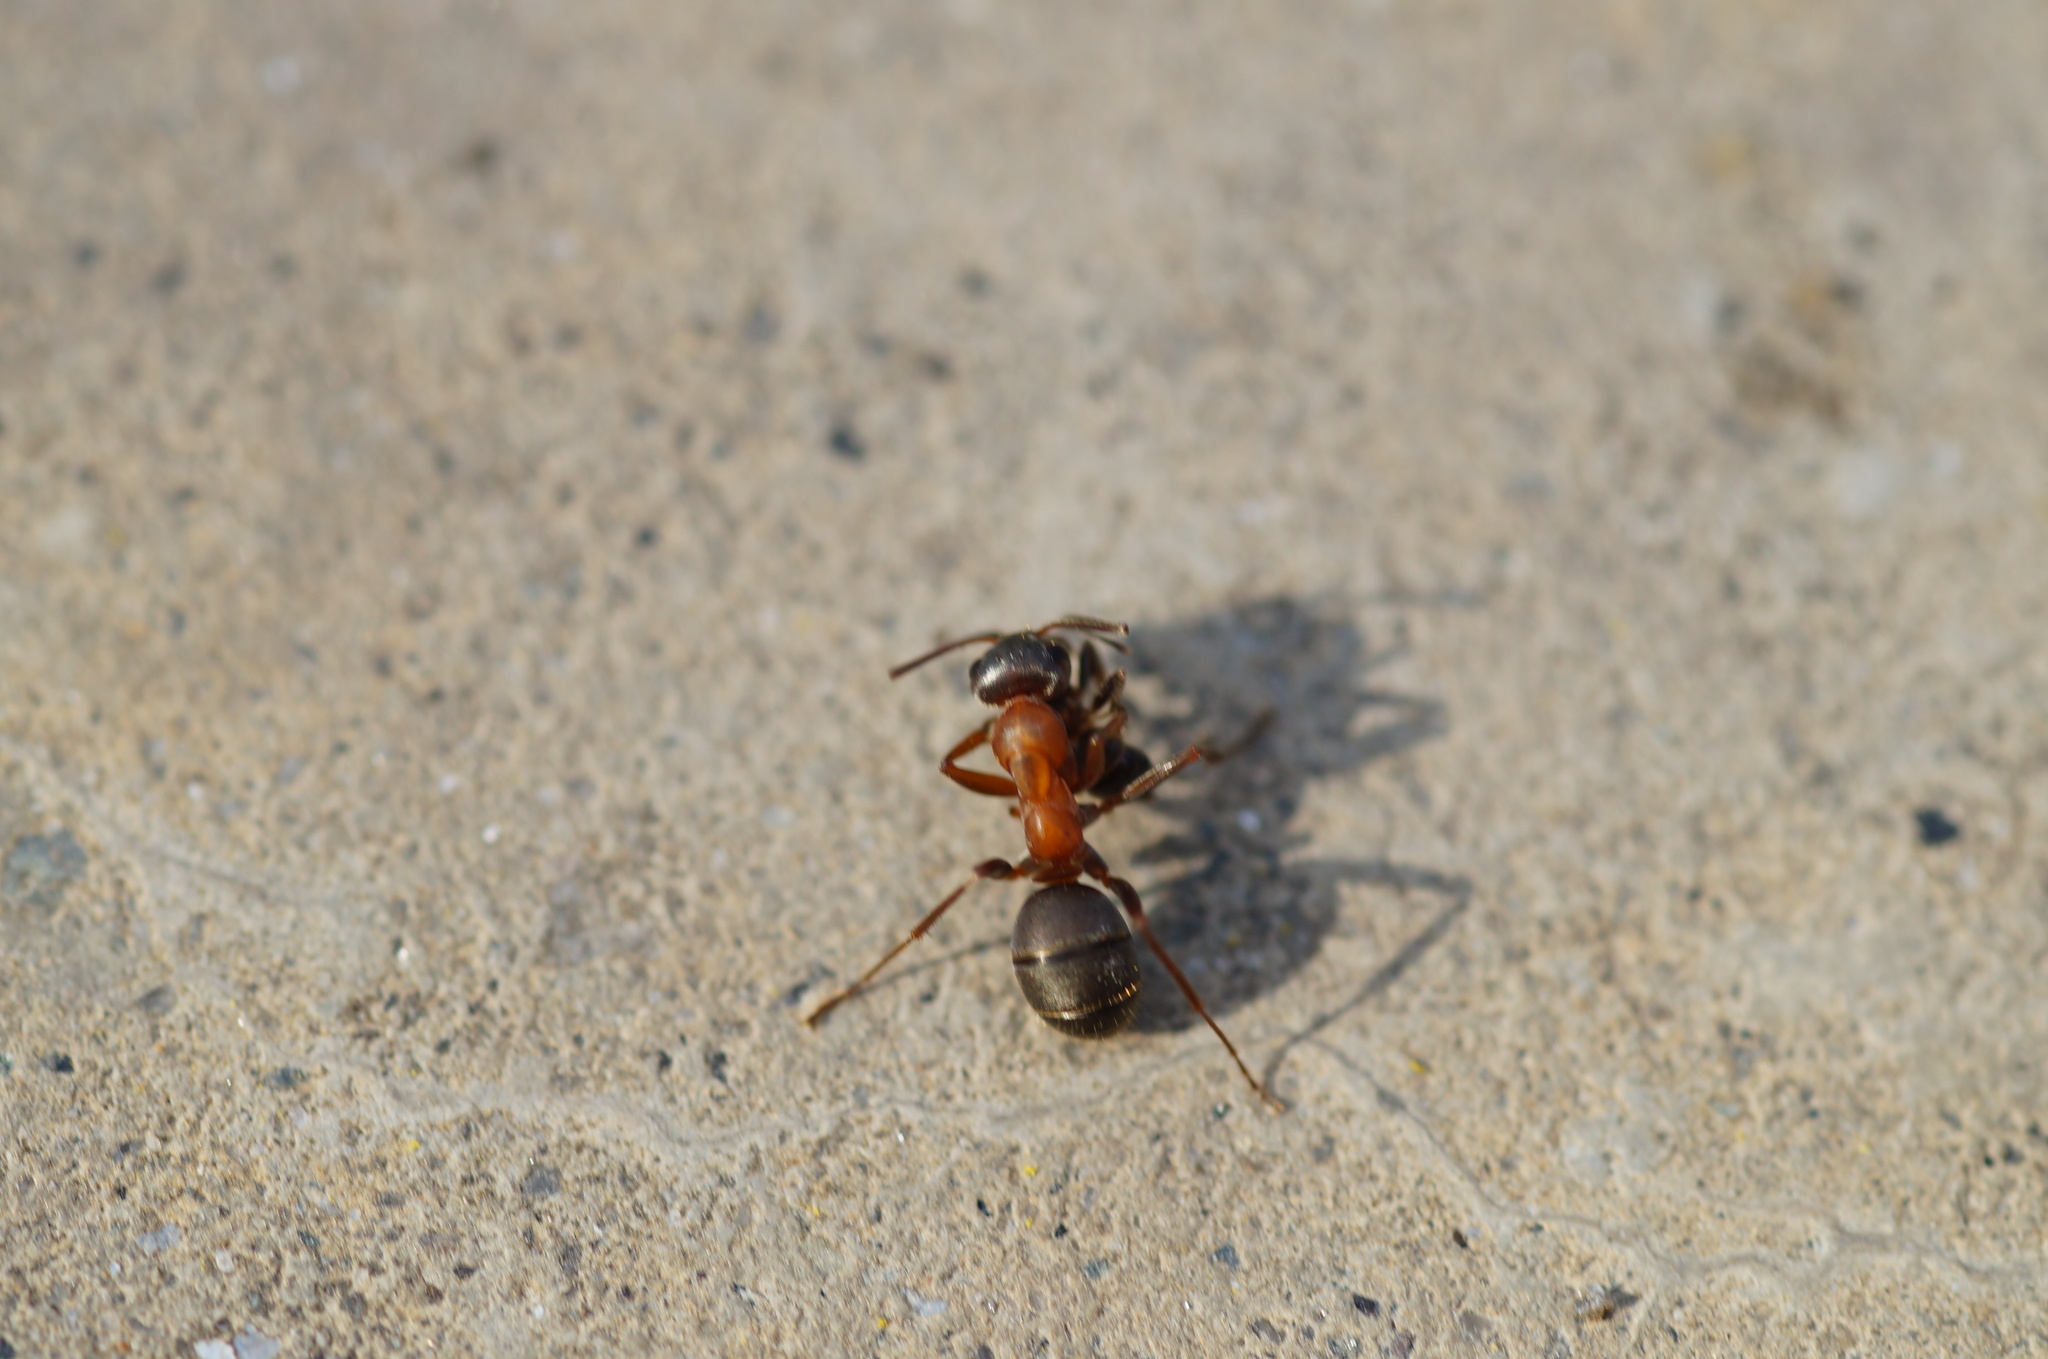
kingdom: Animalia
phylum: Arthropoda
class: Insecta
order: Hymenoptera
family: Formicidae
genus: Formica
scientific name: Formica
